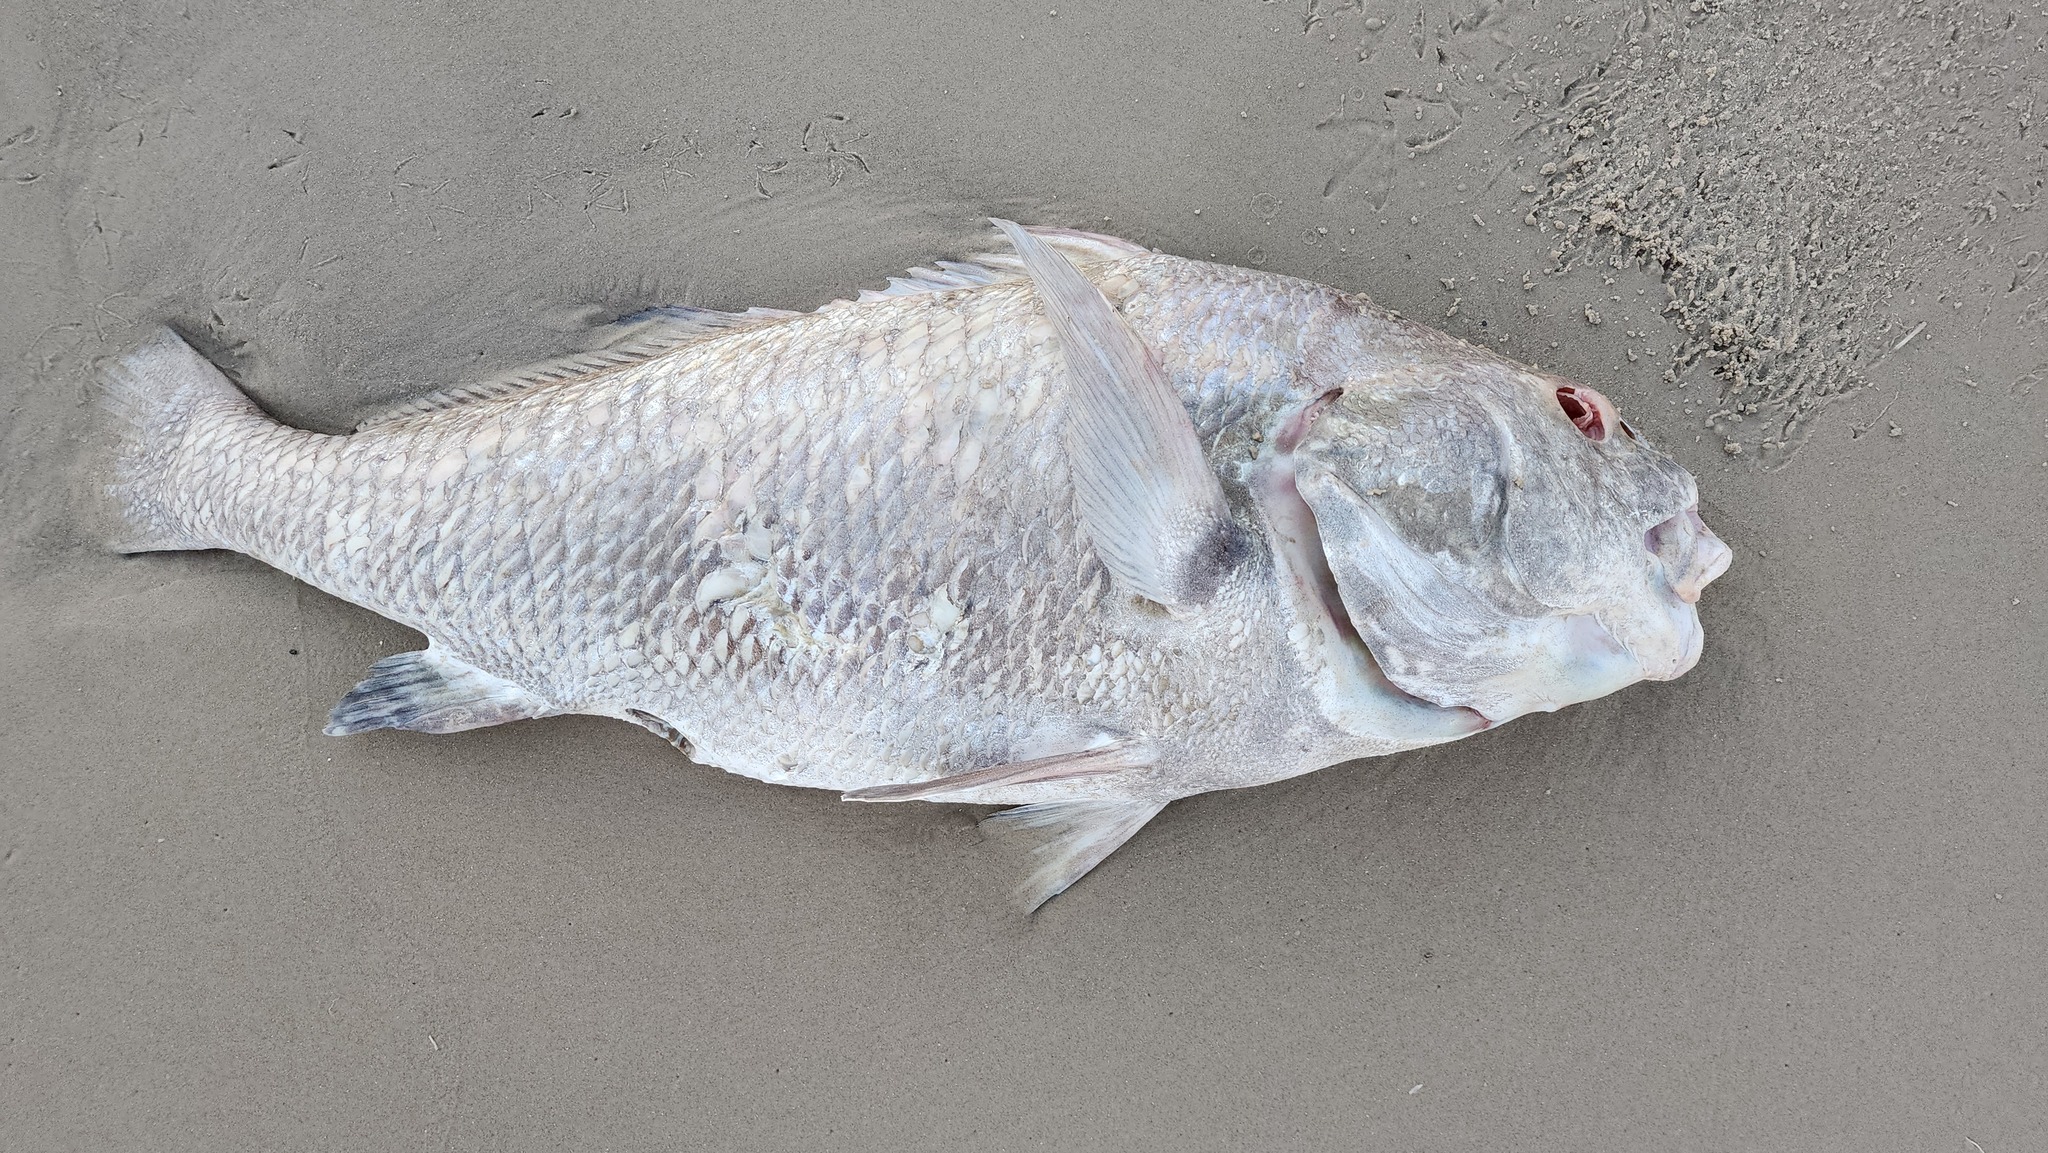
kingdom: Animalia
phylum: Chordata
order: Perciformes
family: Sciaenidae
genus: Pogonias
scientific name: Pogonias cromis
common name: Black drum
